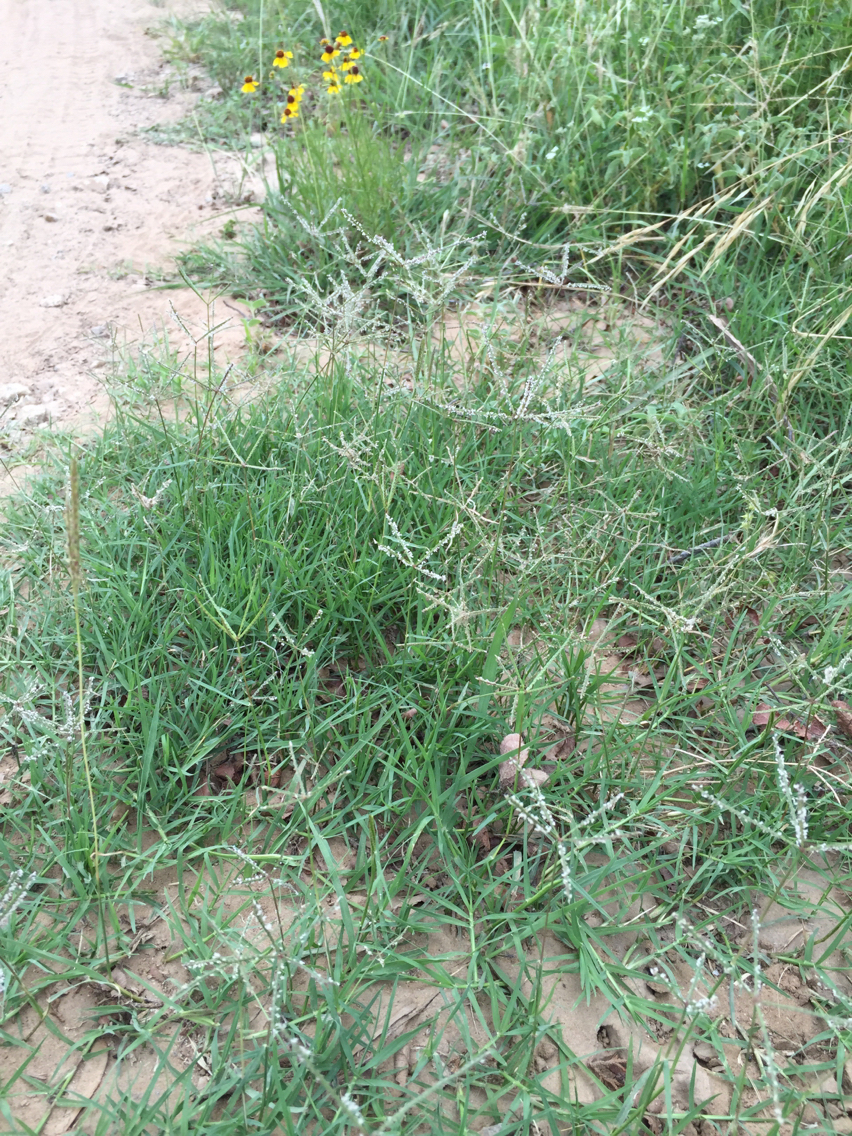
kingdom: Plantae
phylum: Tracheophyta
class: Liliopsida
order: Poales
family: Poaceae
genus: Cynodon
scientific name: Cynodon dactylon
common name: Bermuda grass
